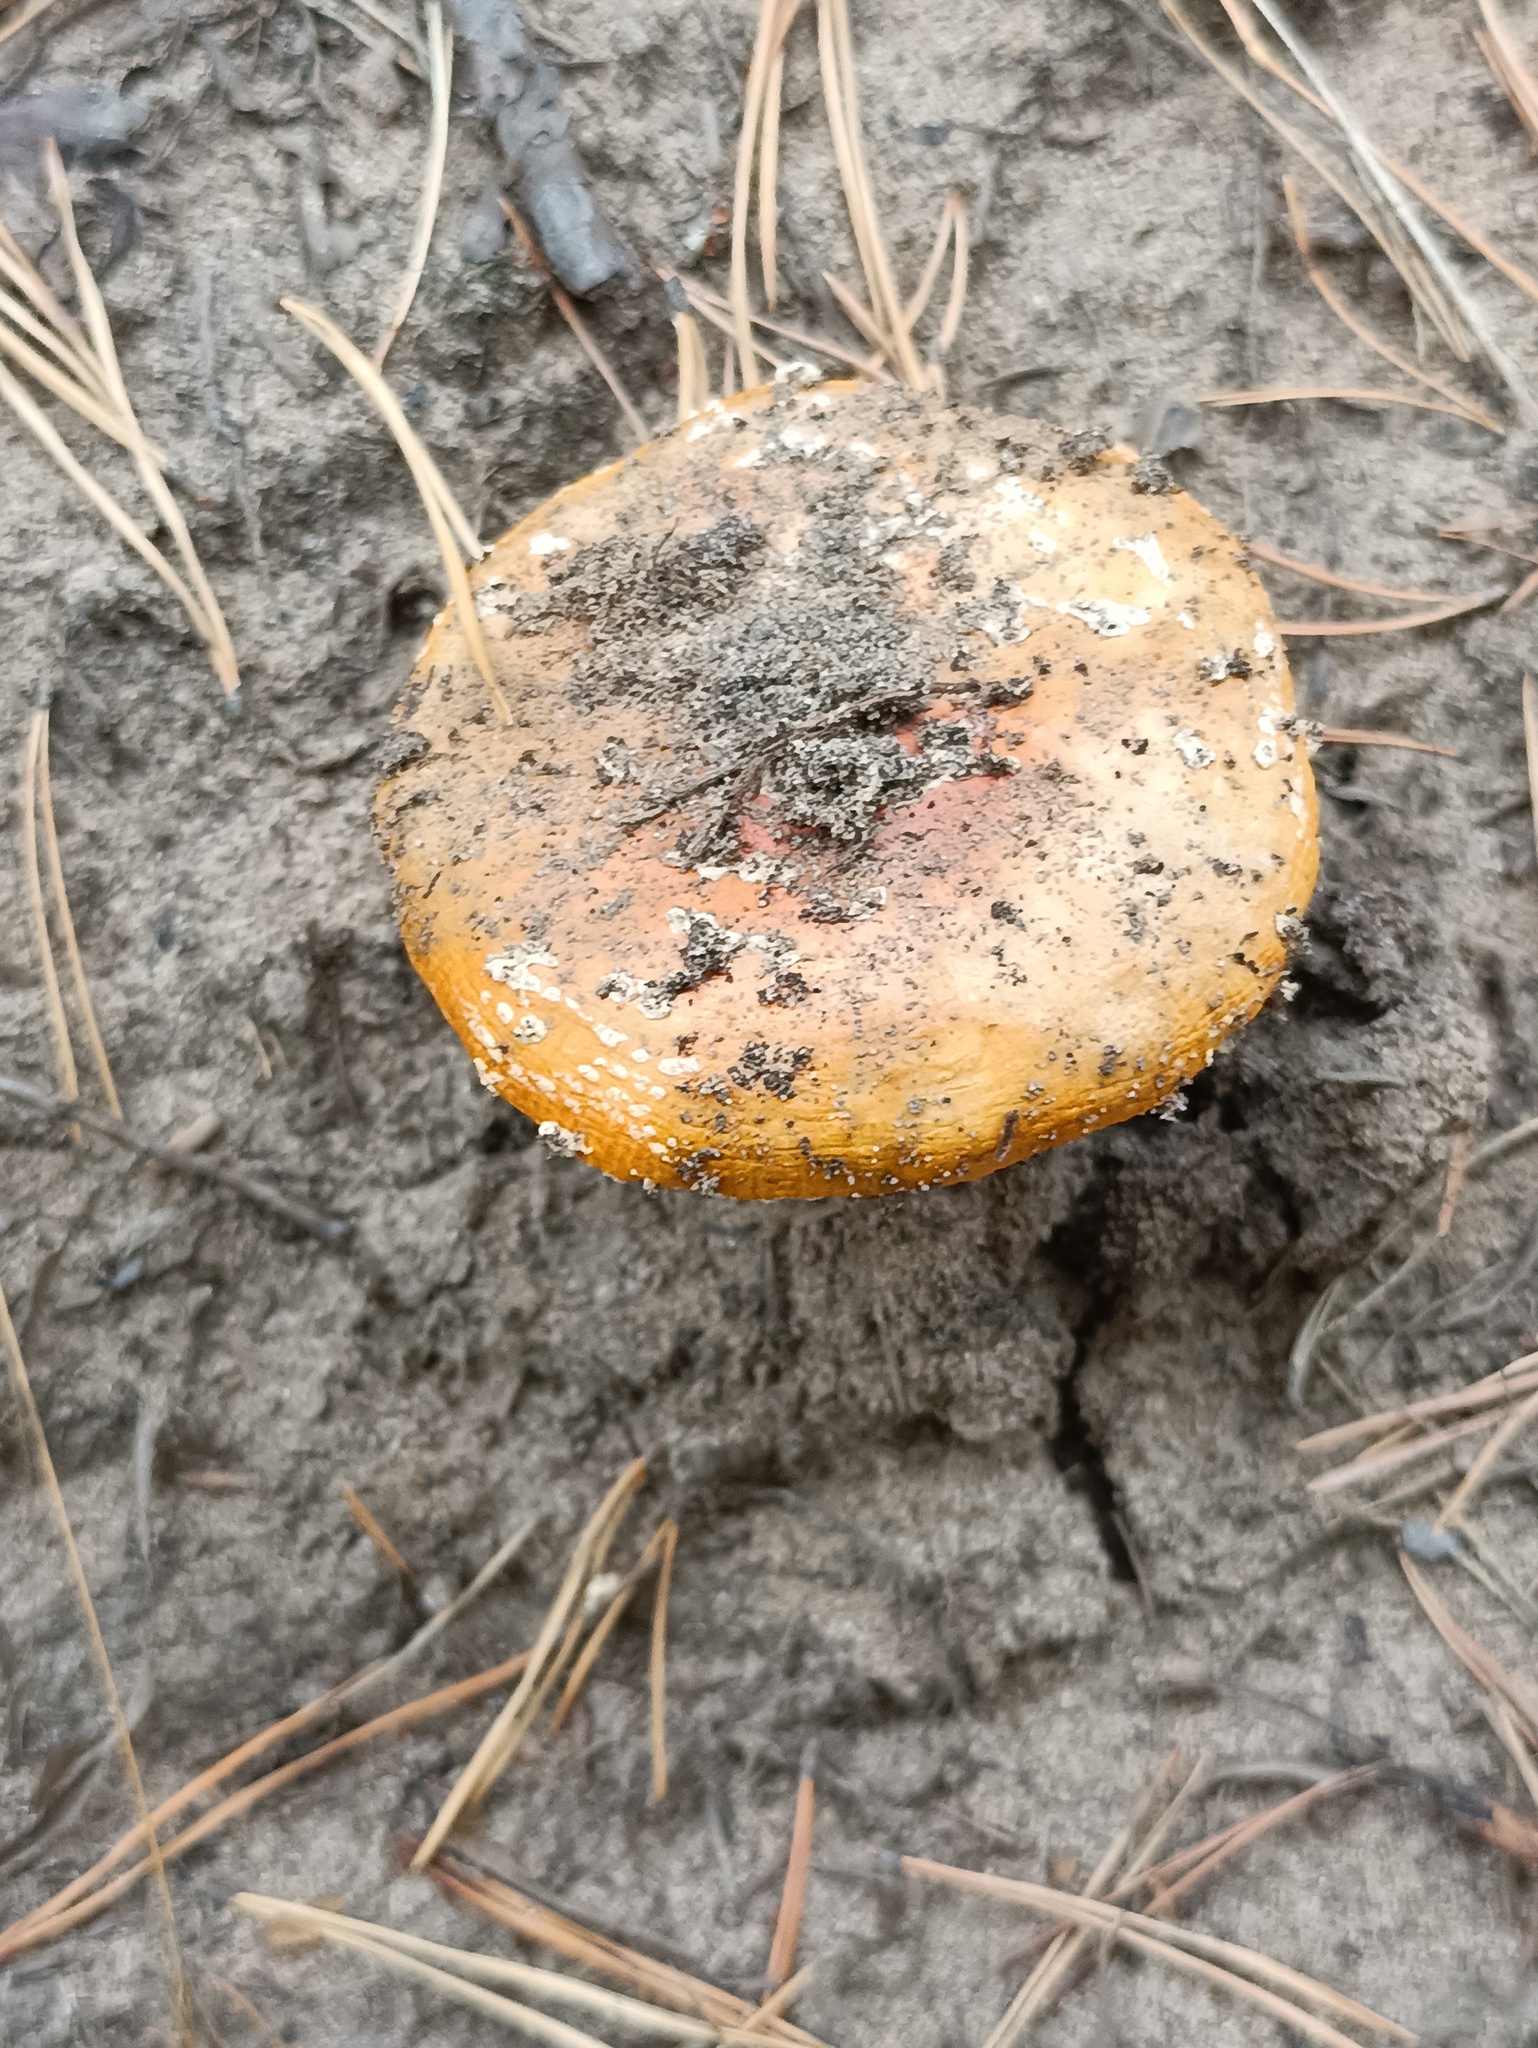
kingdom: Fungi
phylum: Basidiomycota
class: Agaricomycetes
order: Agaricales
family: Amanitaceae
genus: Amanita
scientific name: Amanita muscaria
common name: Fly agaric
